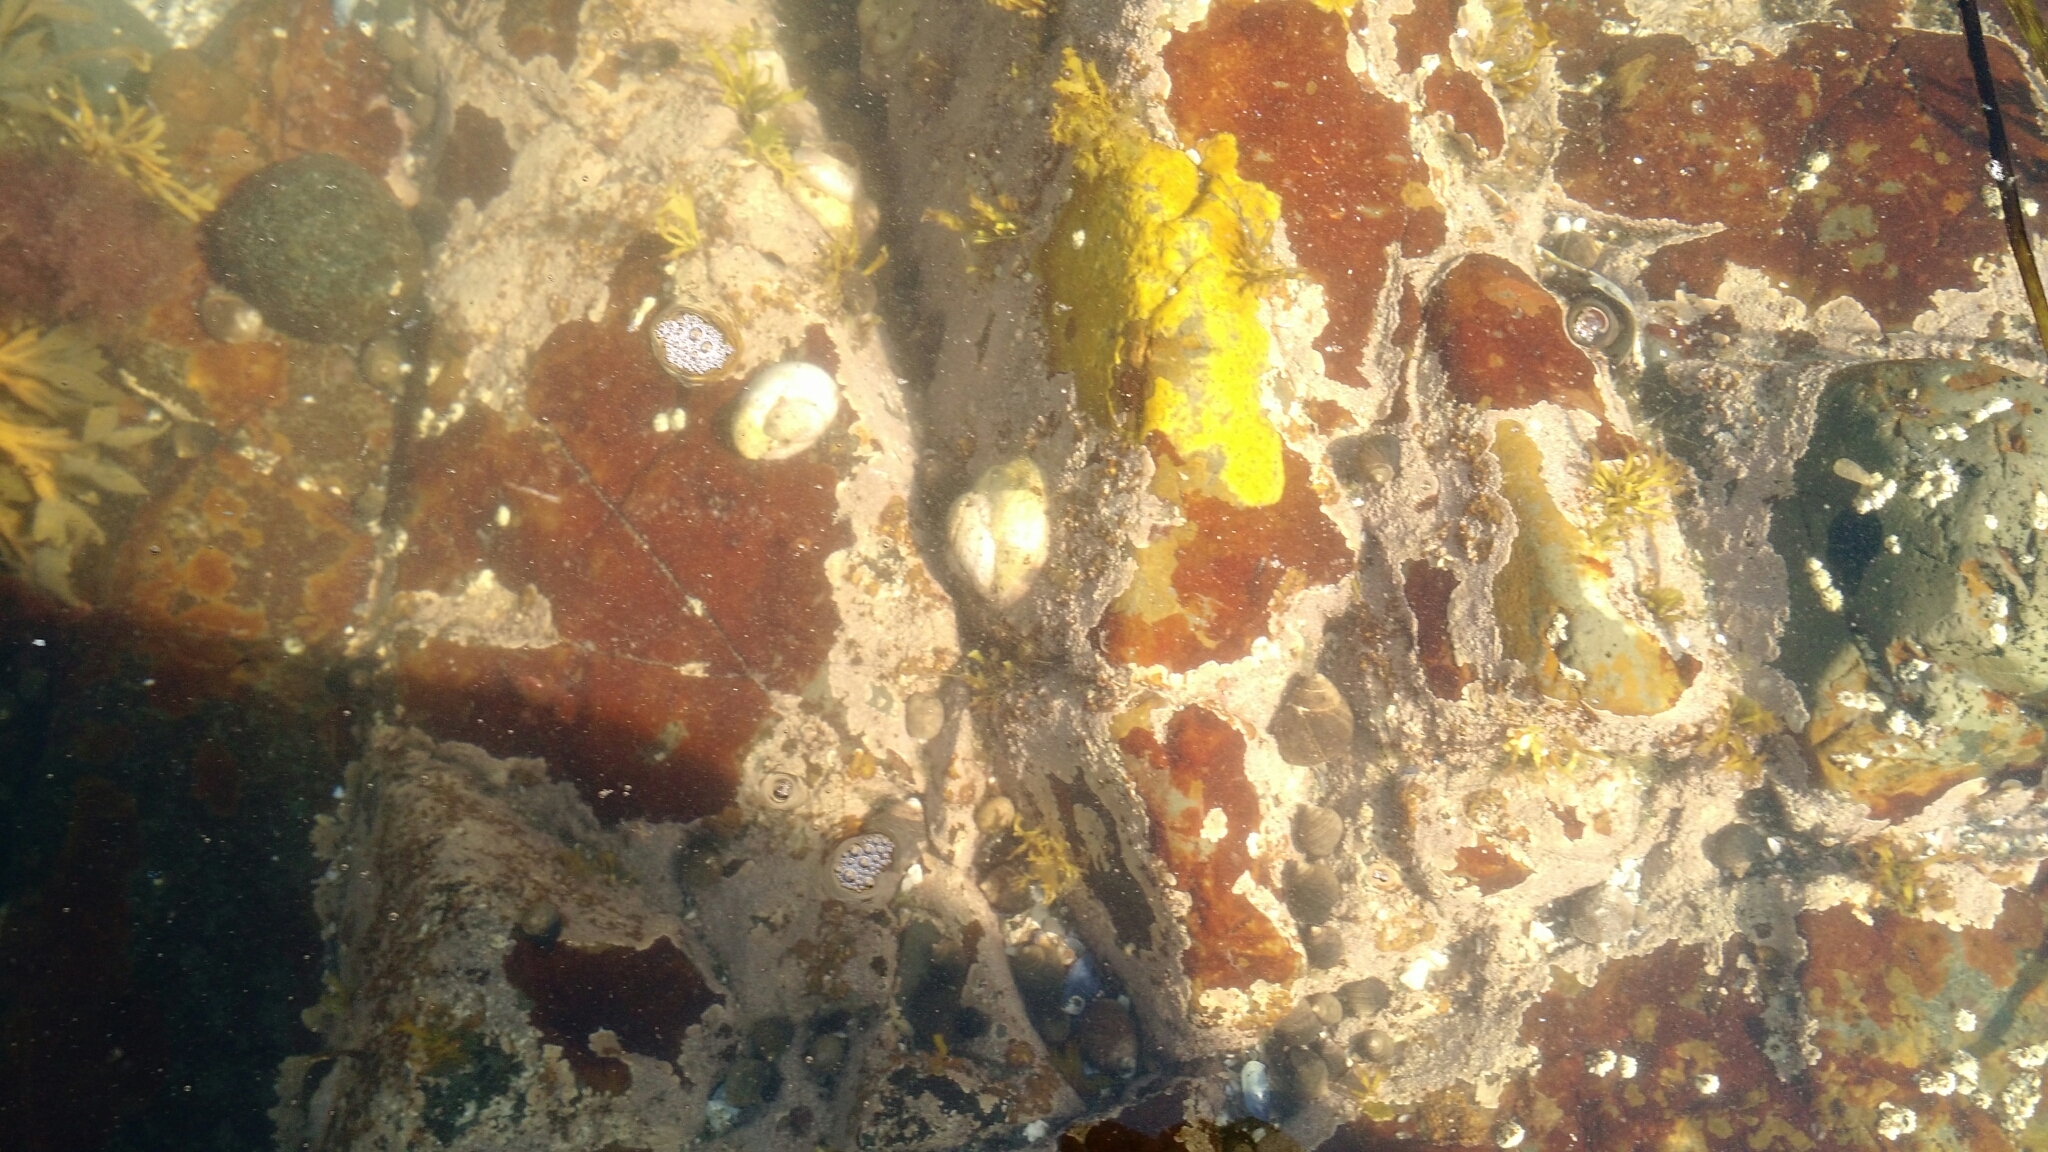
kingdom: Animalia
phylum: Mollusca
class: Gastropoda
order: Littorinimorpha
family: Calyptraeidae
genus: Crepidula
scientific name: Crepidula fornicata
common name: Slipper limpet
